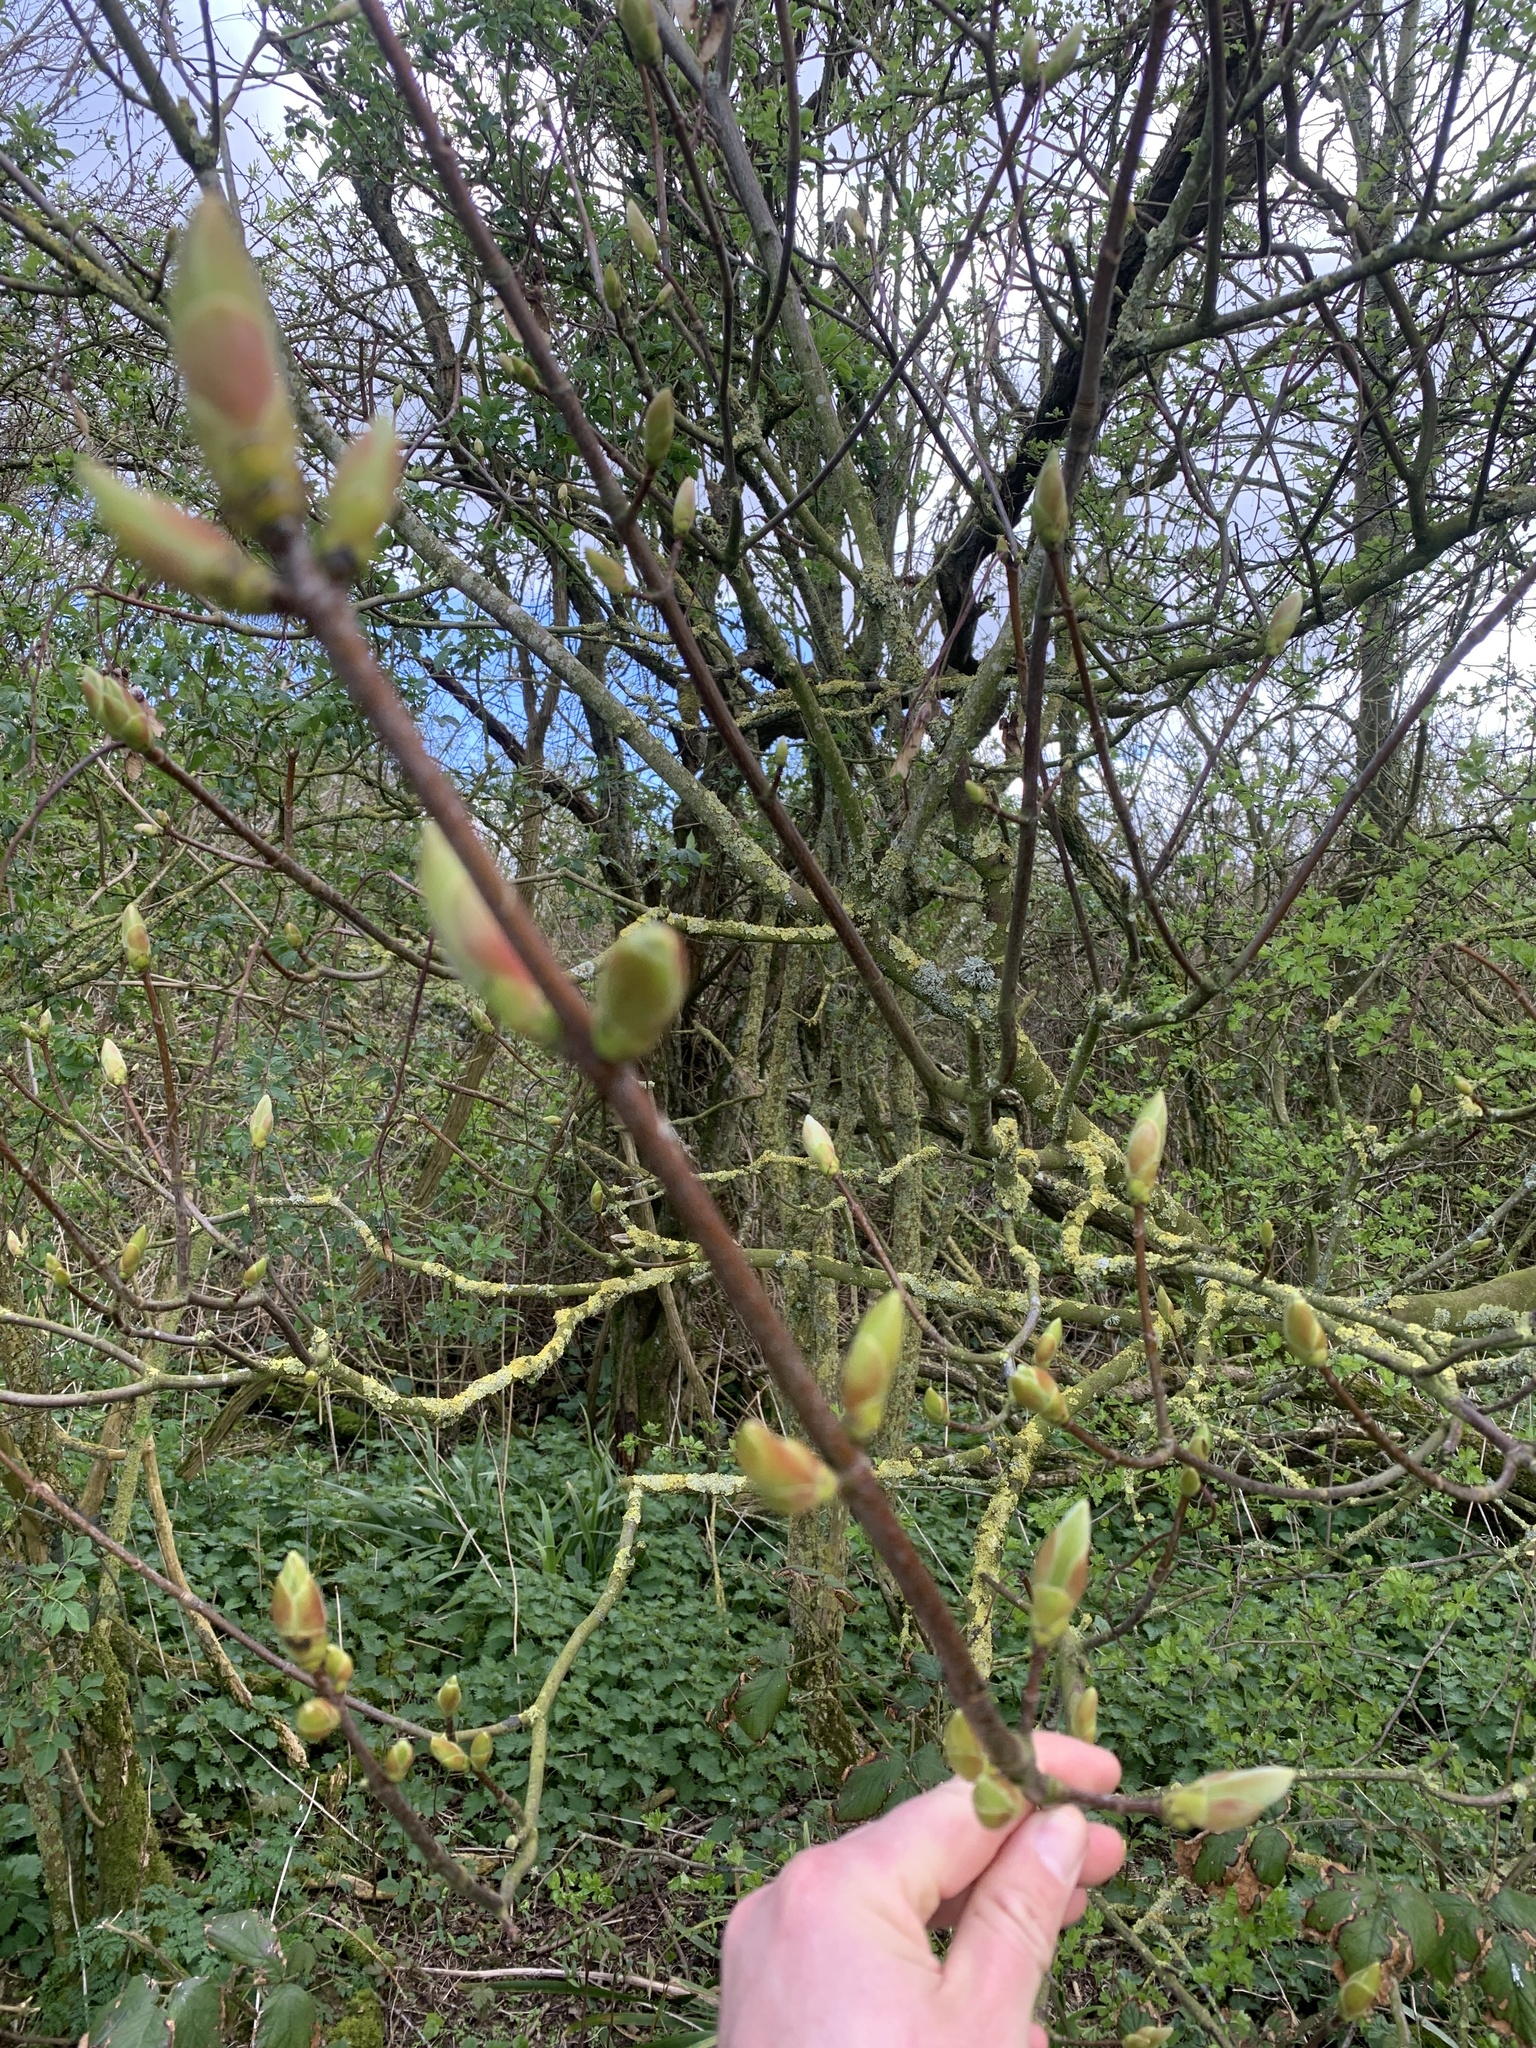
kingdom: Plantae
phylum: Tracheophyta
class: Magnoliopsida
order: Sapindales
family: Sapindaceae
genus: Acer
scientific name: Acer platanoides
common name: Norway maple
